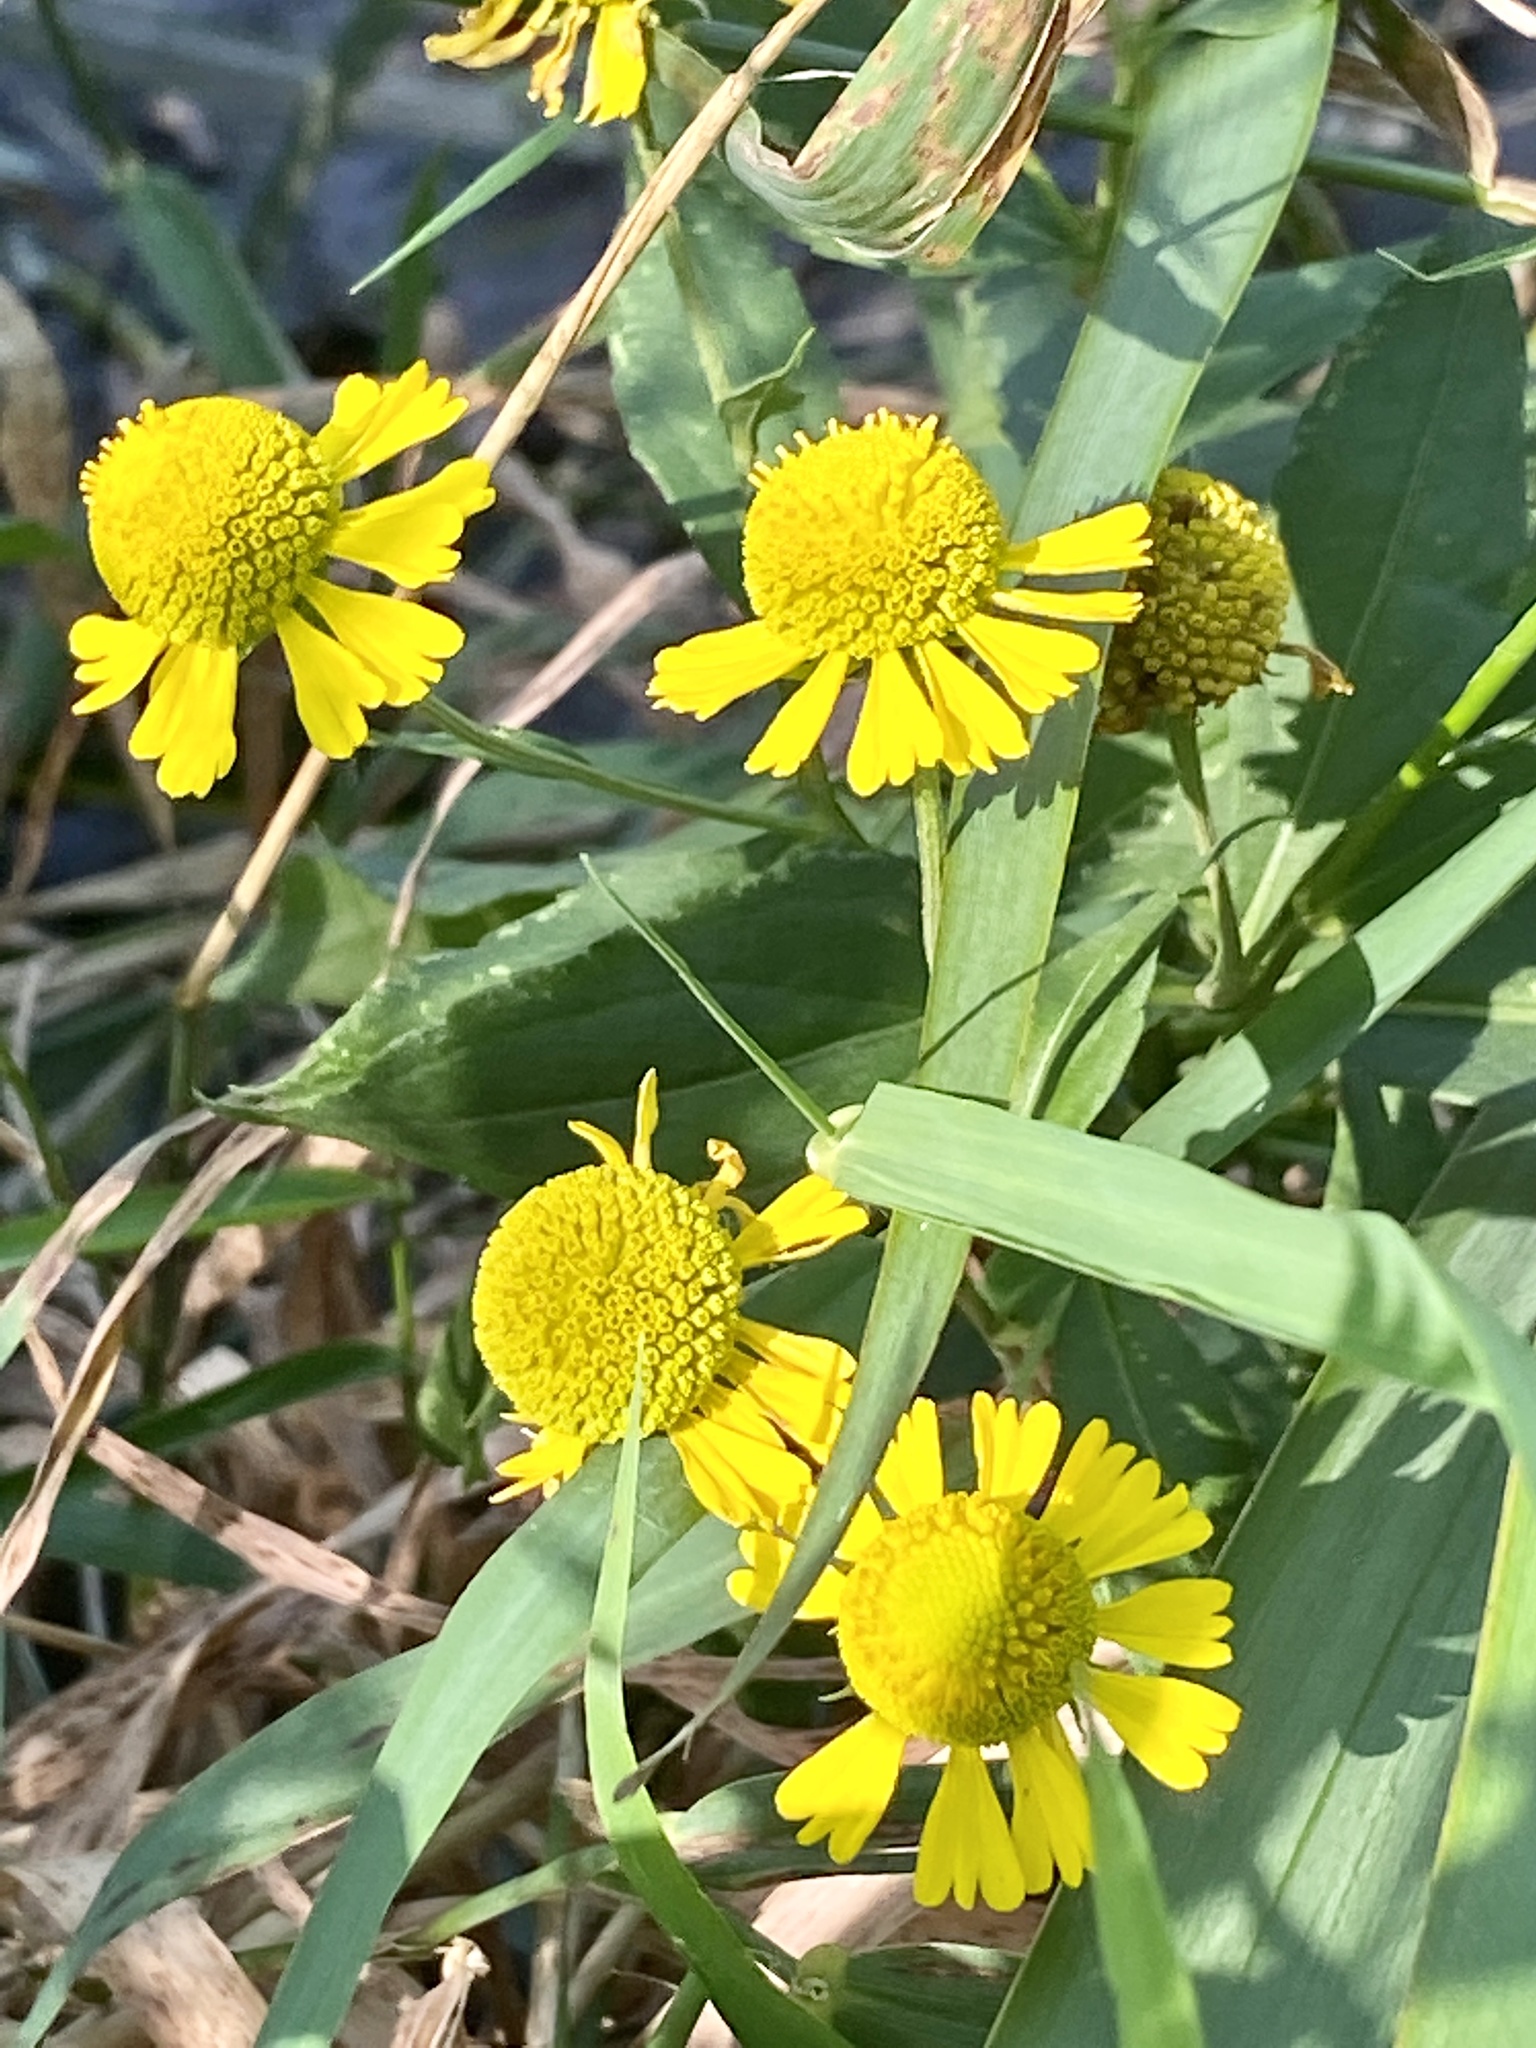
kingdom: Plantae
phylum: Tracheophyta
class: Magnoliopsida
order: Asterales
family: Asteraceae
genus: Helenium
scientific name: Helenium autumnale
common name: Sneezeweed
